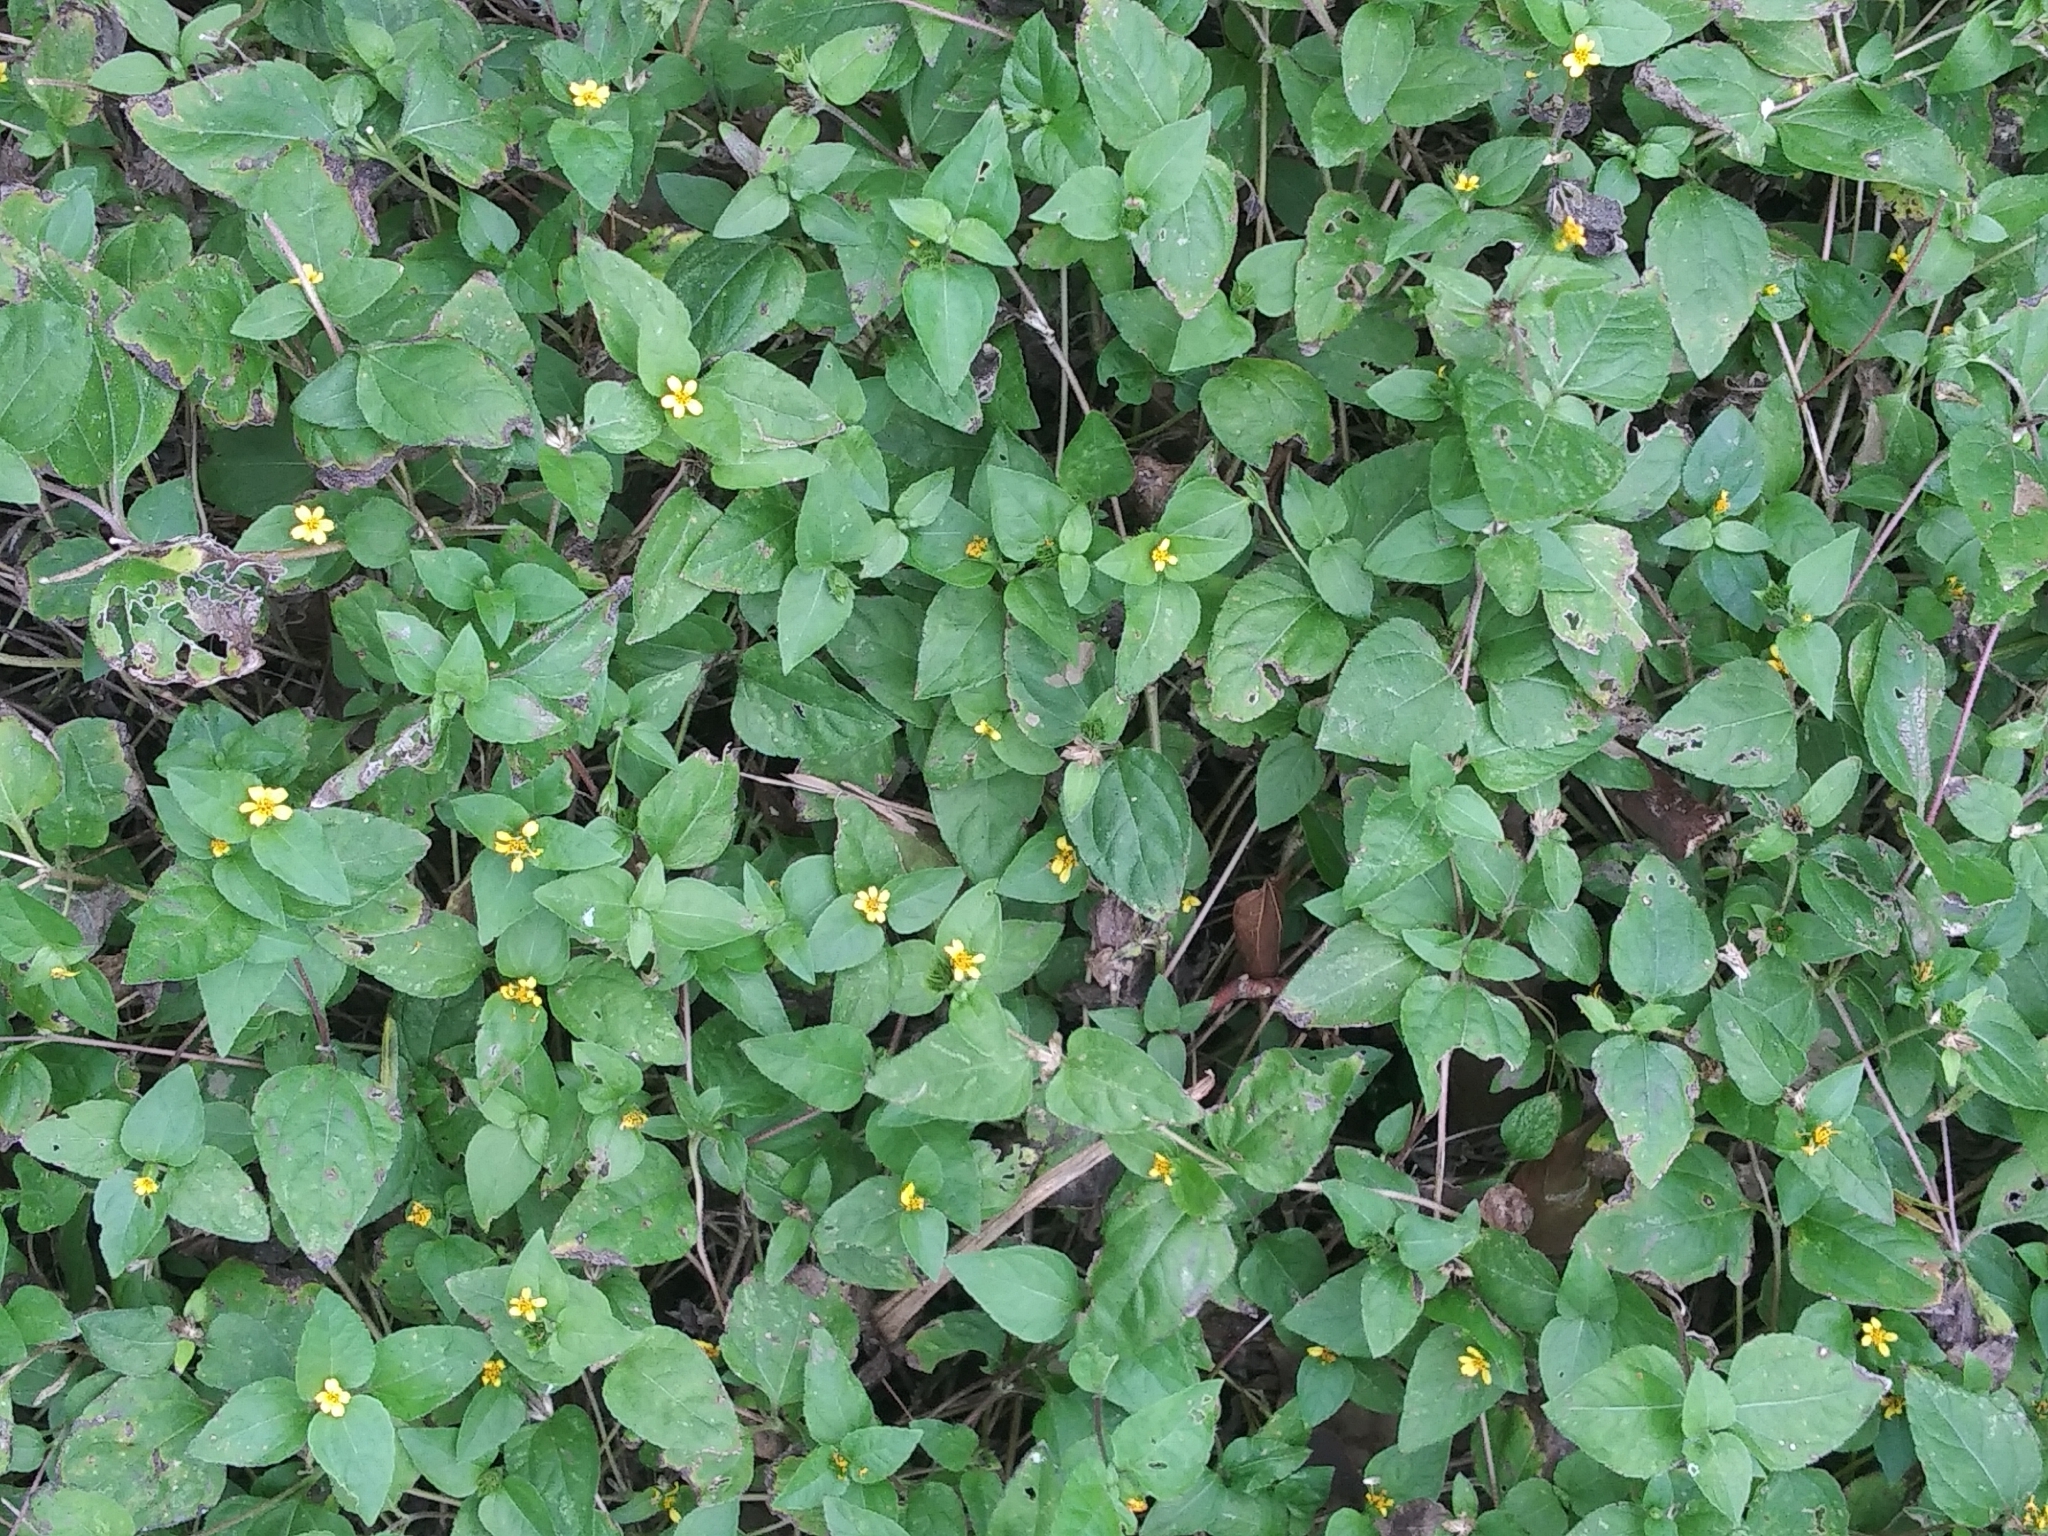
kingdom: Plantae
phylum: Tracheophyta
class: Magnoliopsida
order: Asterales
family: Asteraceae
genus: Calyptocarpus
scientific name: Calyptocarpus vialis
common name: Straggler daisy
